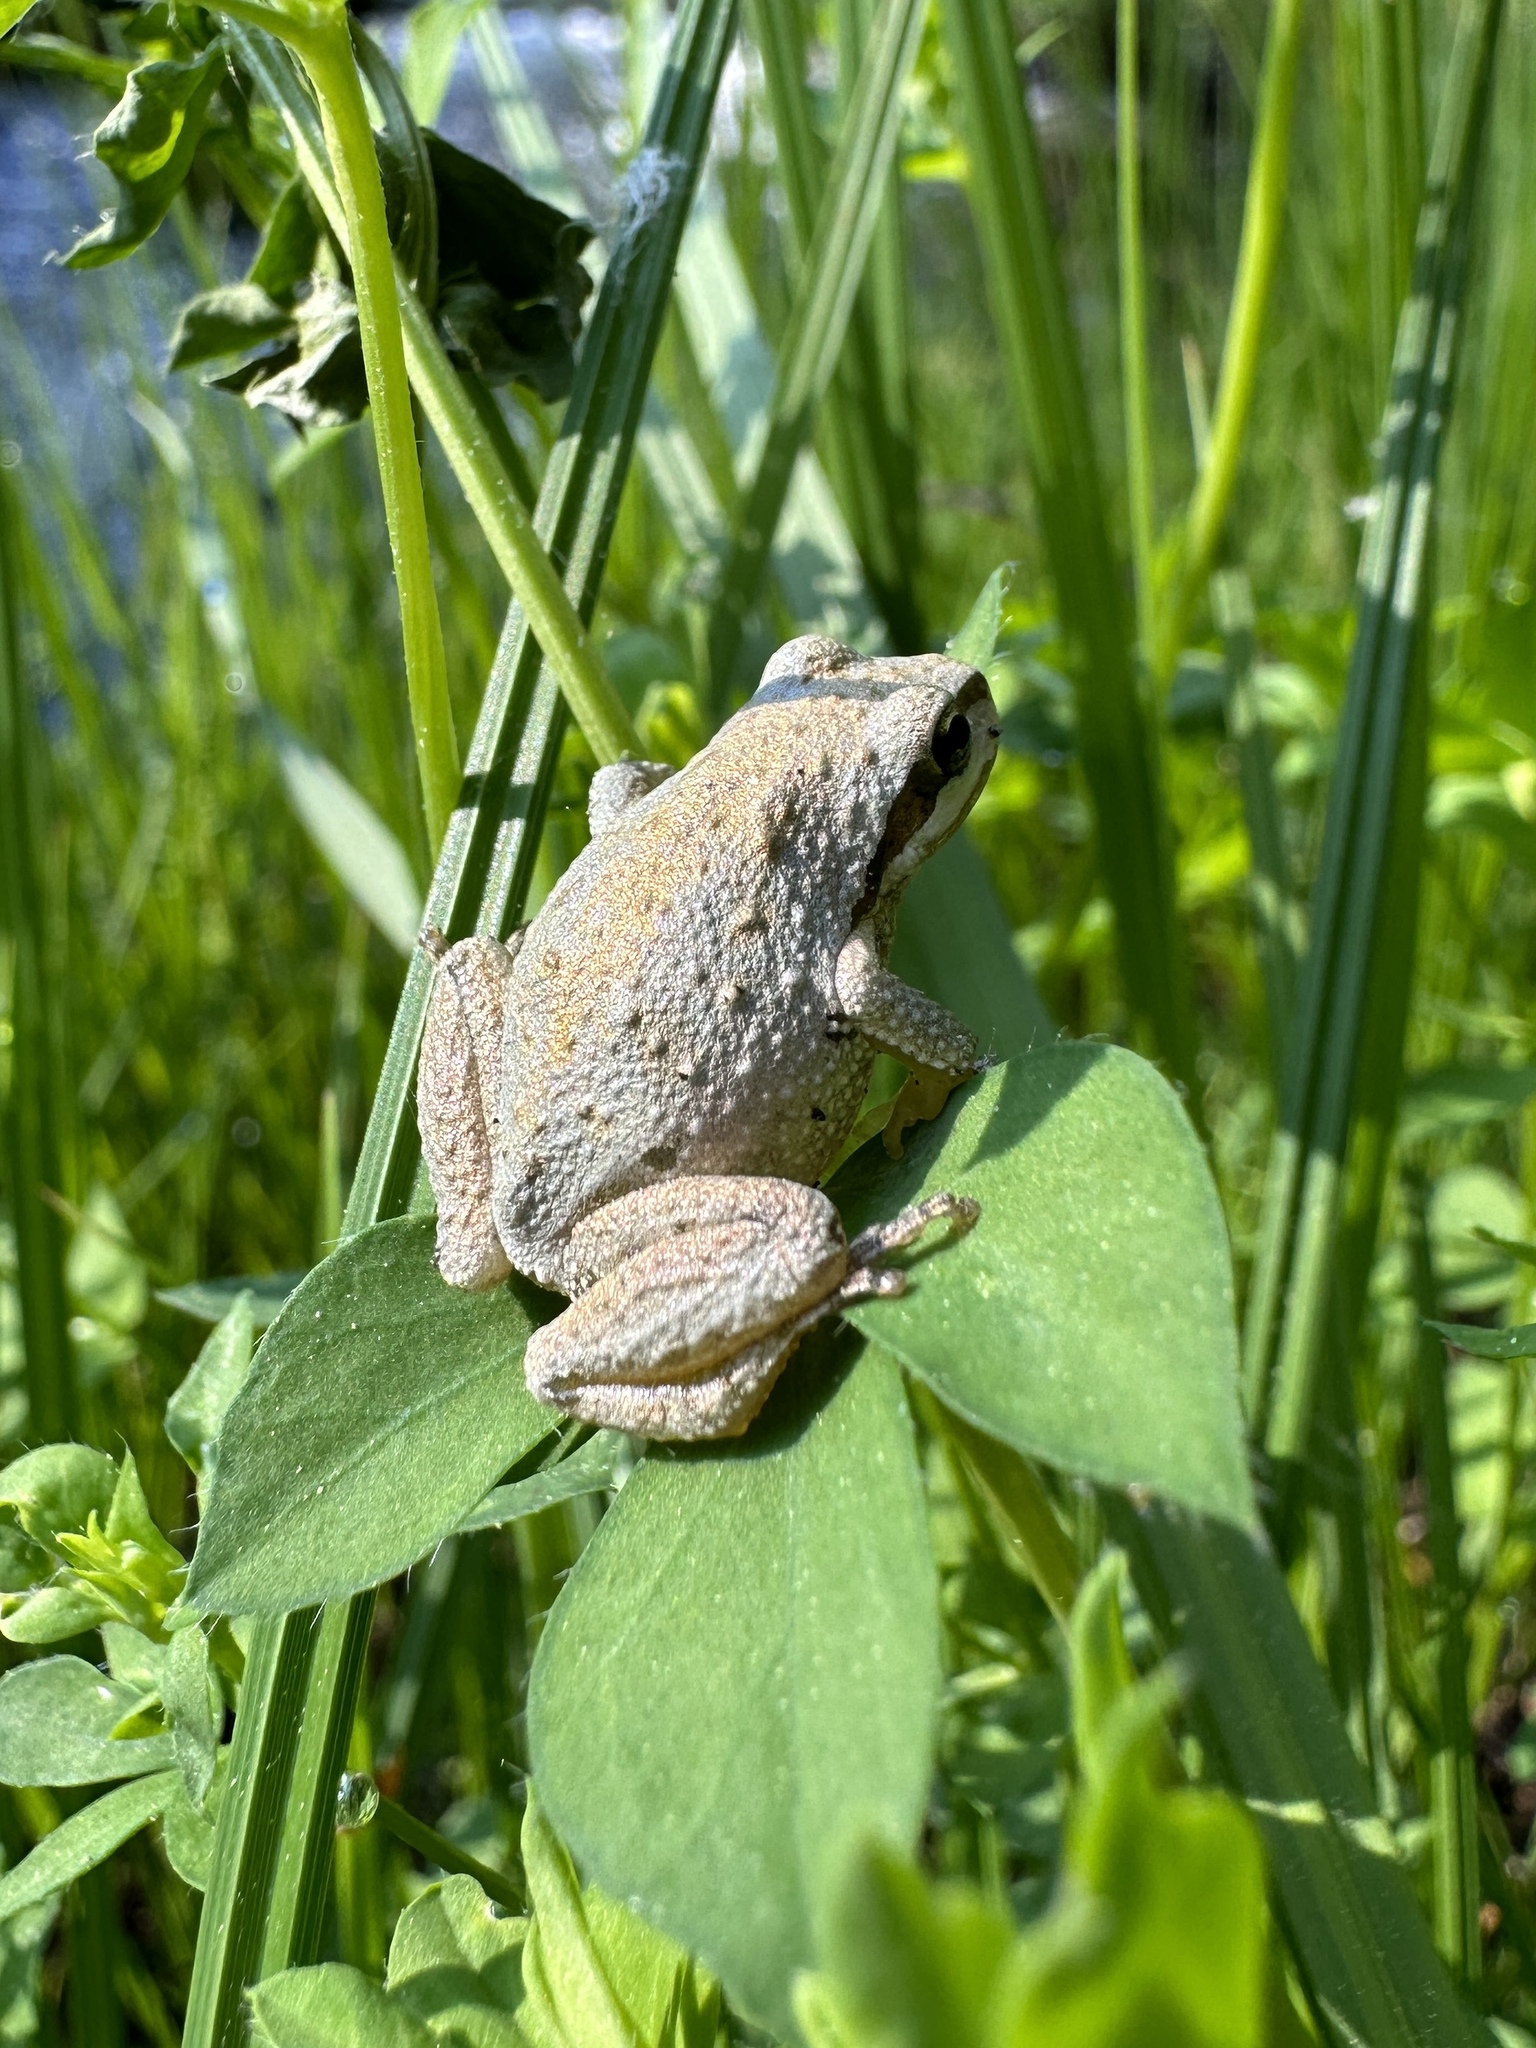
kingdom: Animalia
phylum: Chordata
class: Amphibia
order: Anura
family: Hylidae
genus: Pseudacris
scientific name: Pseudacris regilla
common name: Pacific chorus frog
